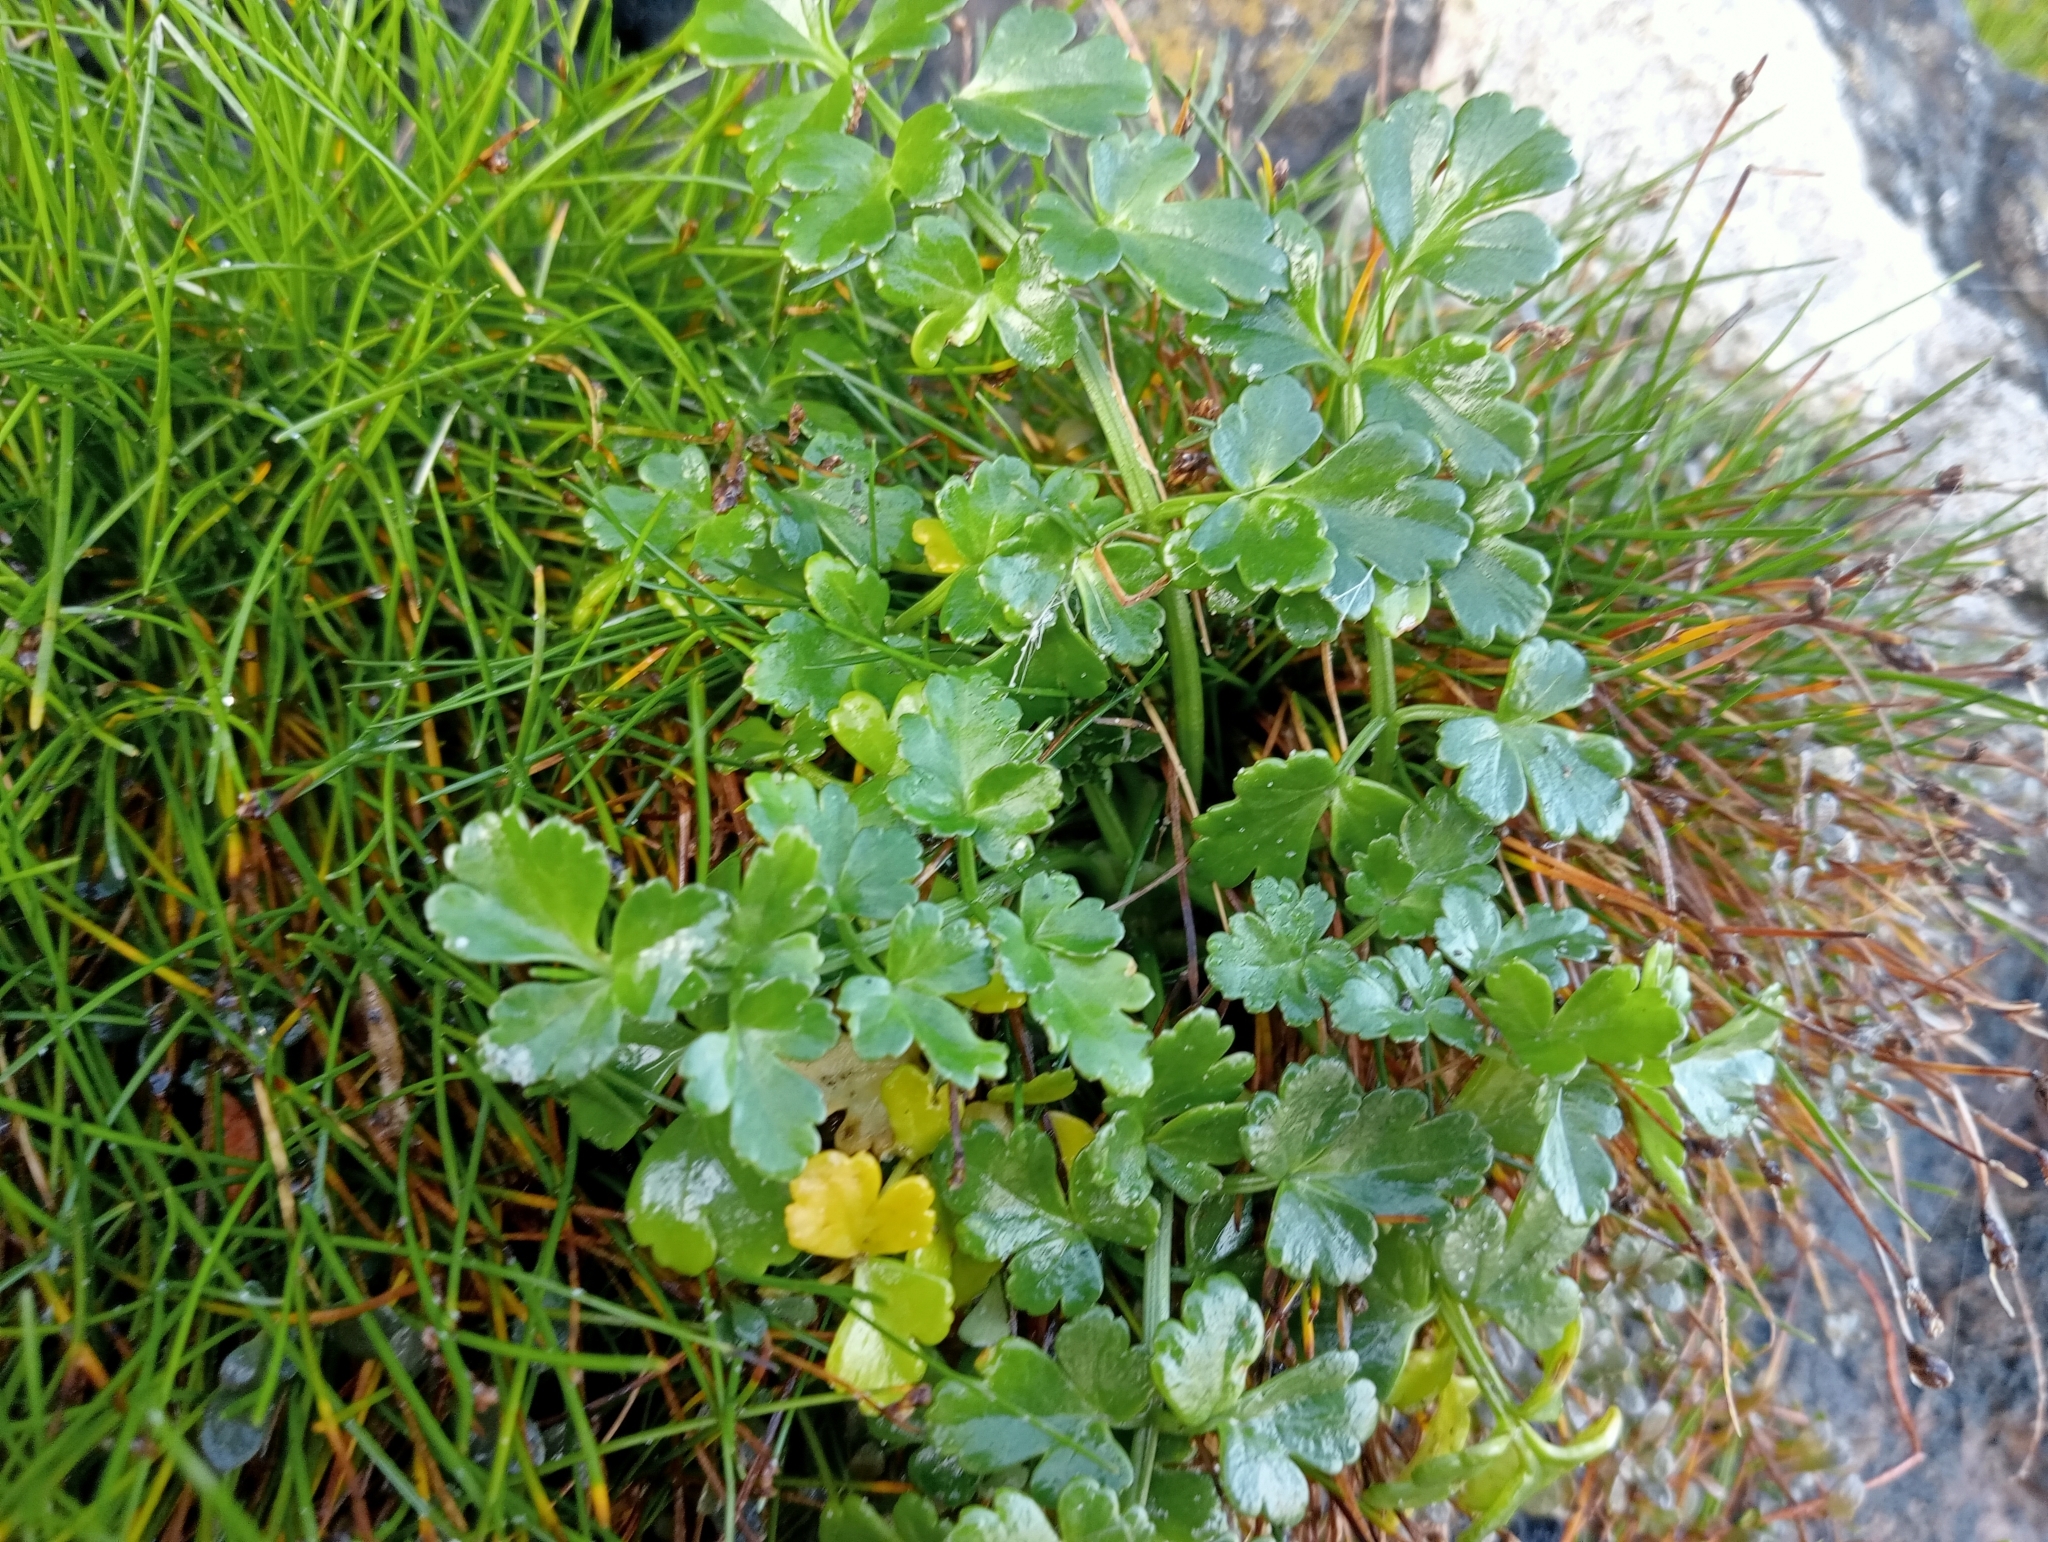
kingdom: Plantae
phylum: Tracheophyta
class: Magnoliopsida
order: Apiales
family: Apiaceae
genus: Apium
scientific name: Apium prostratum
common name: Prostrate marshwort
